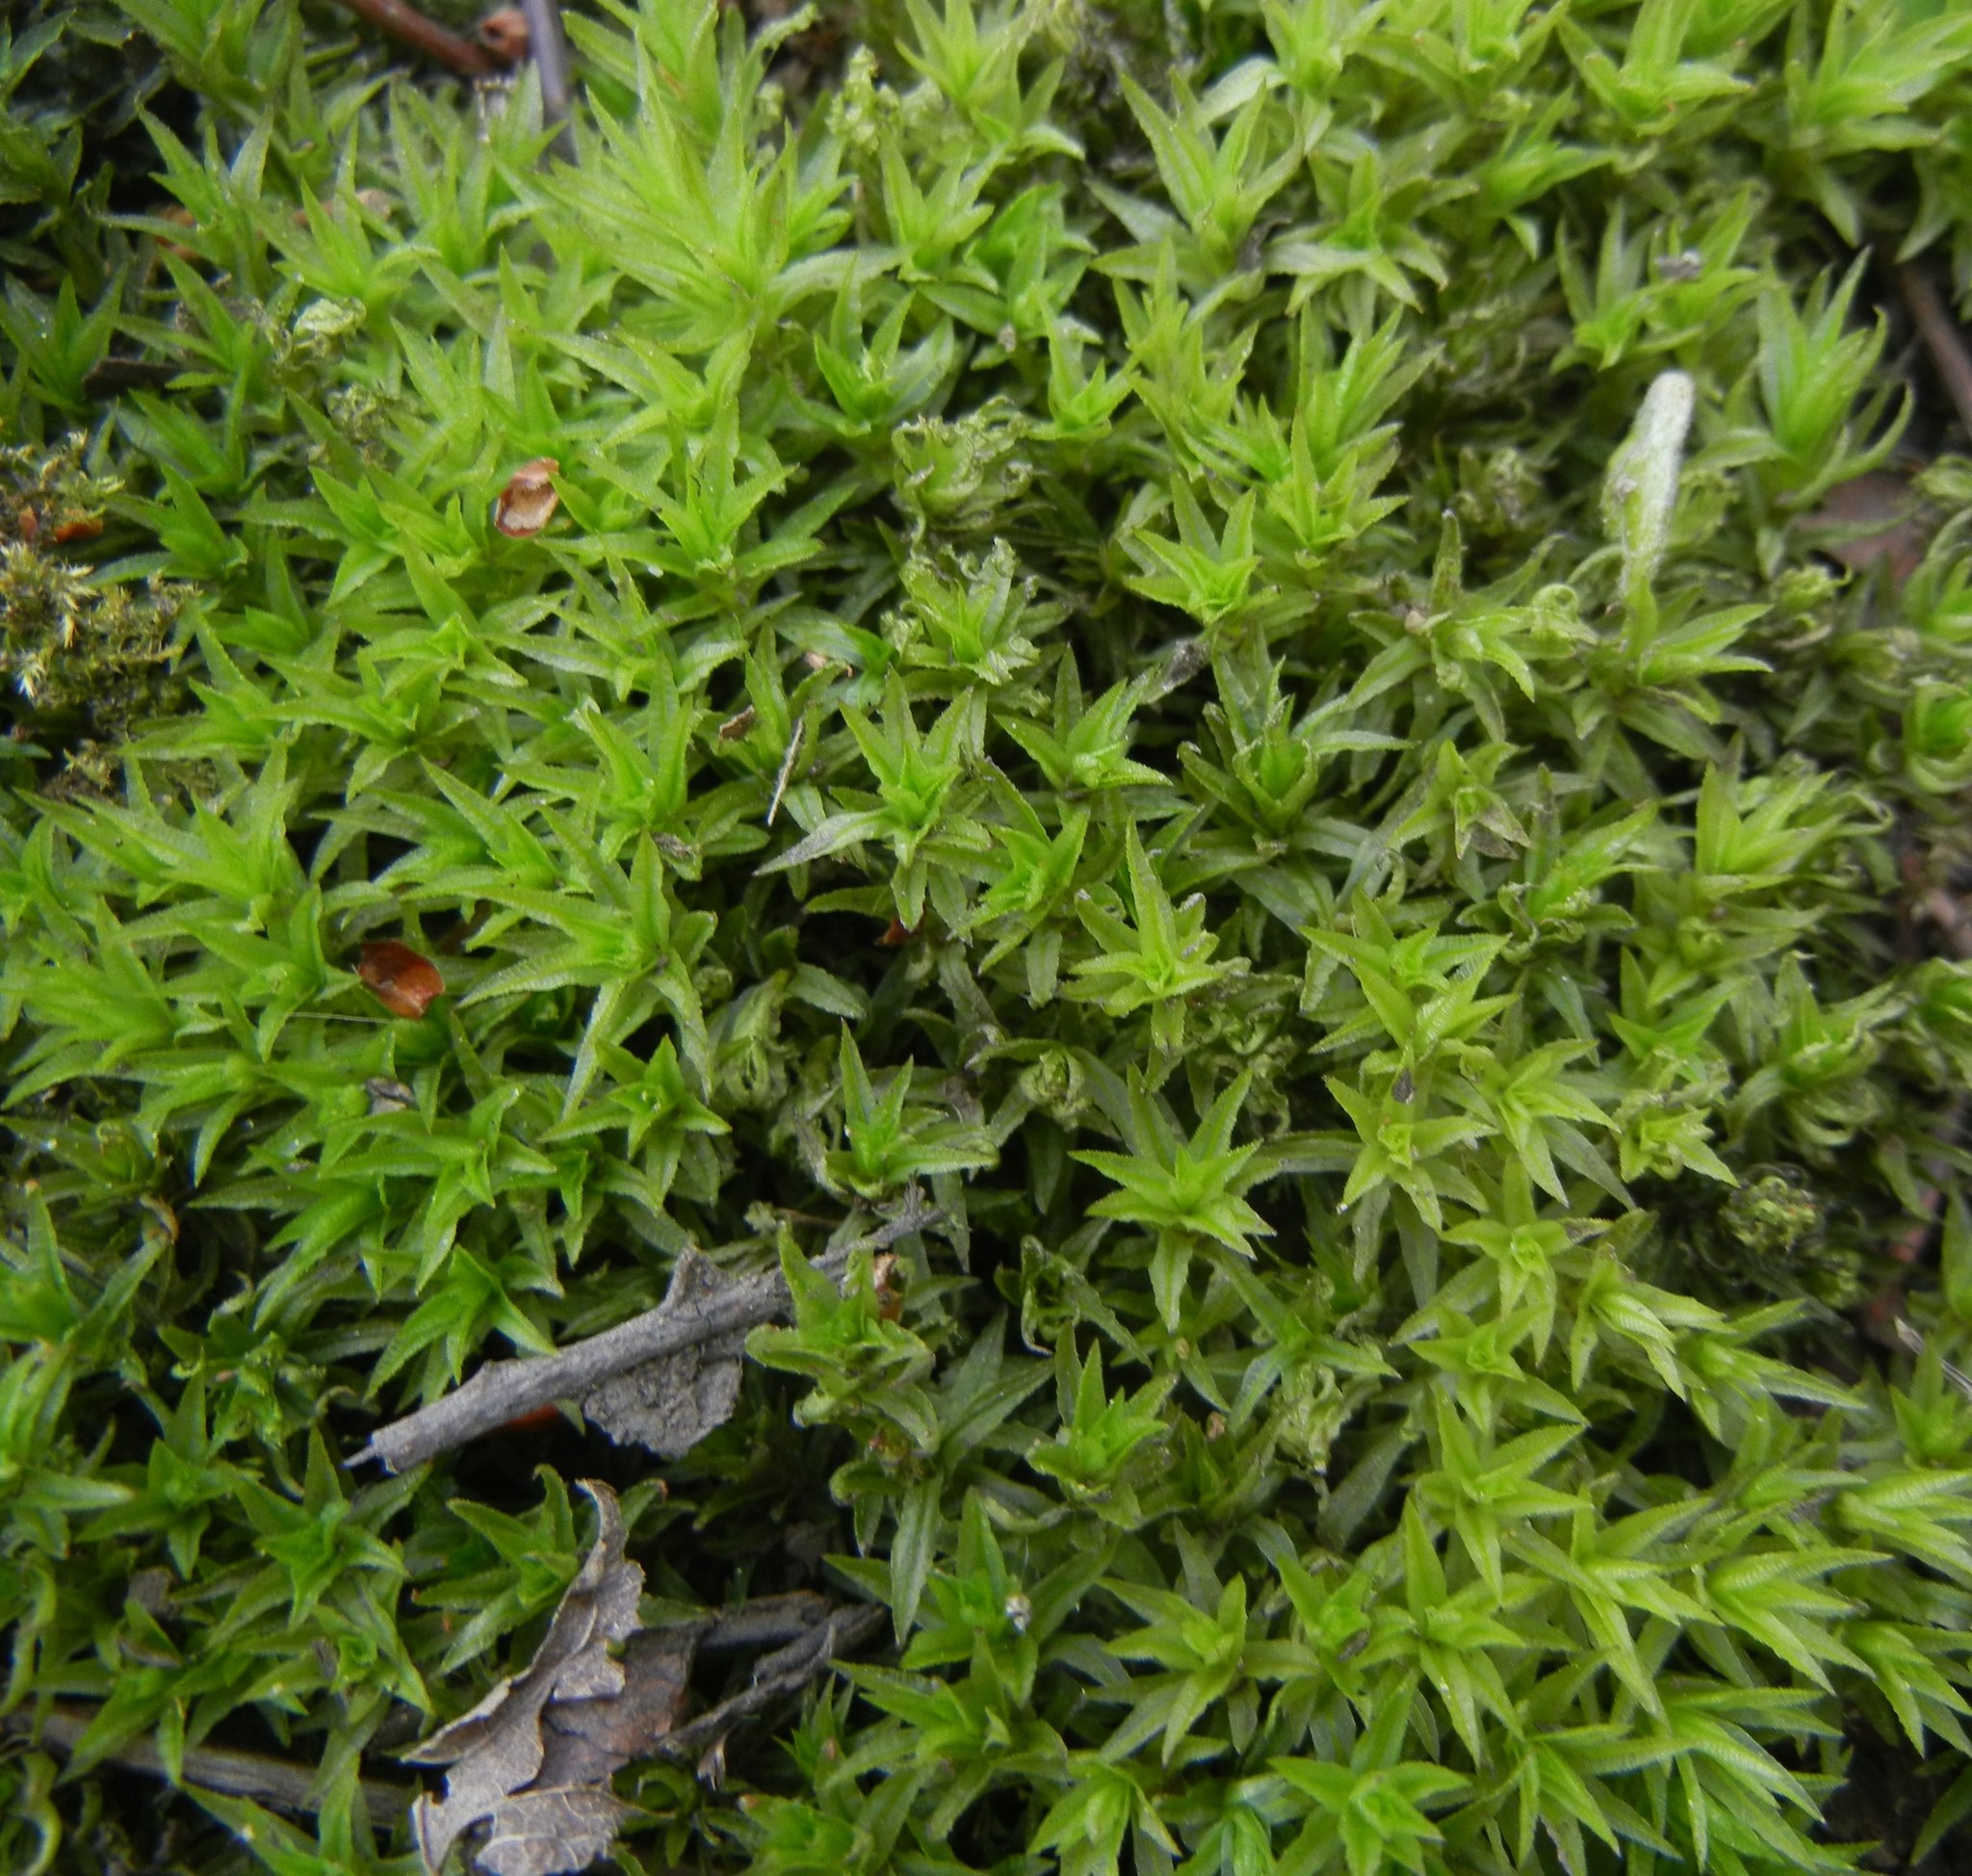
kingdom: Plantae
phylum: Bryophyta
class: Polytrichopsida
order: Polytrichales
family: Polytrichaceae
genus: Atrichum
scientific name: Atrichum undulatum
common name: Common smoothcap
